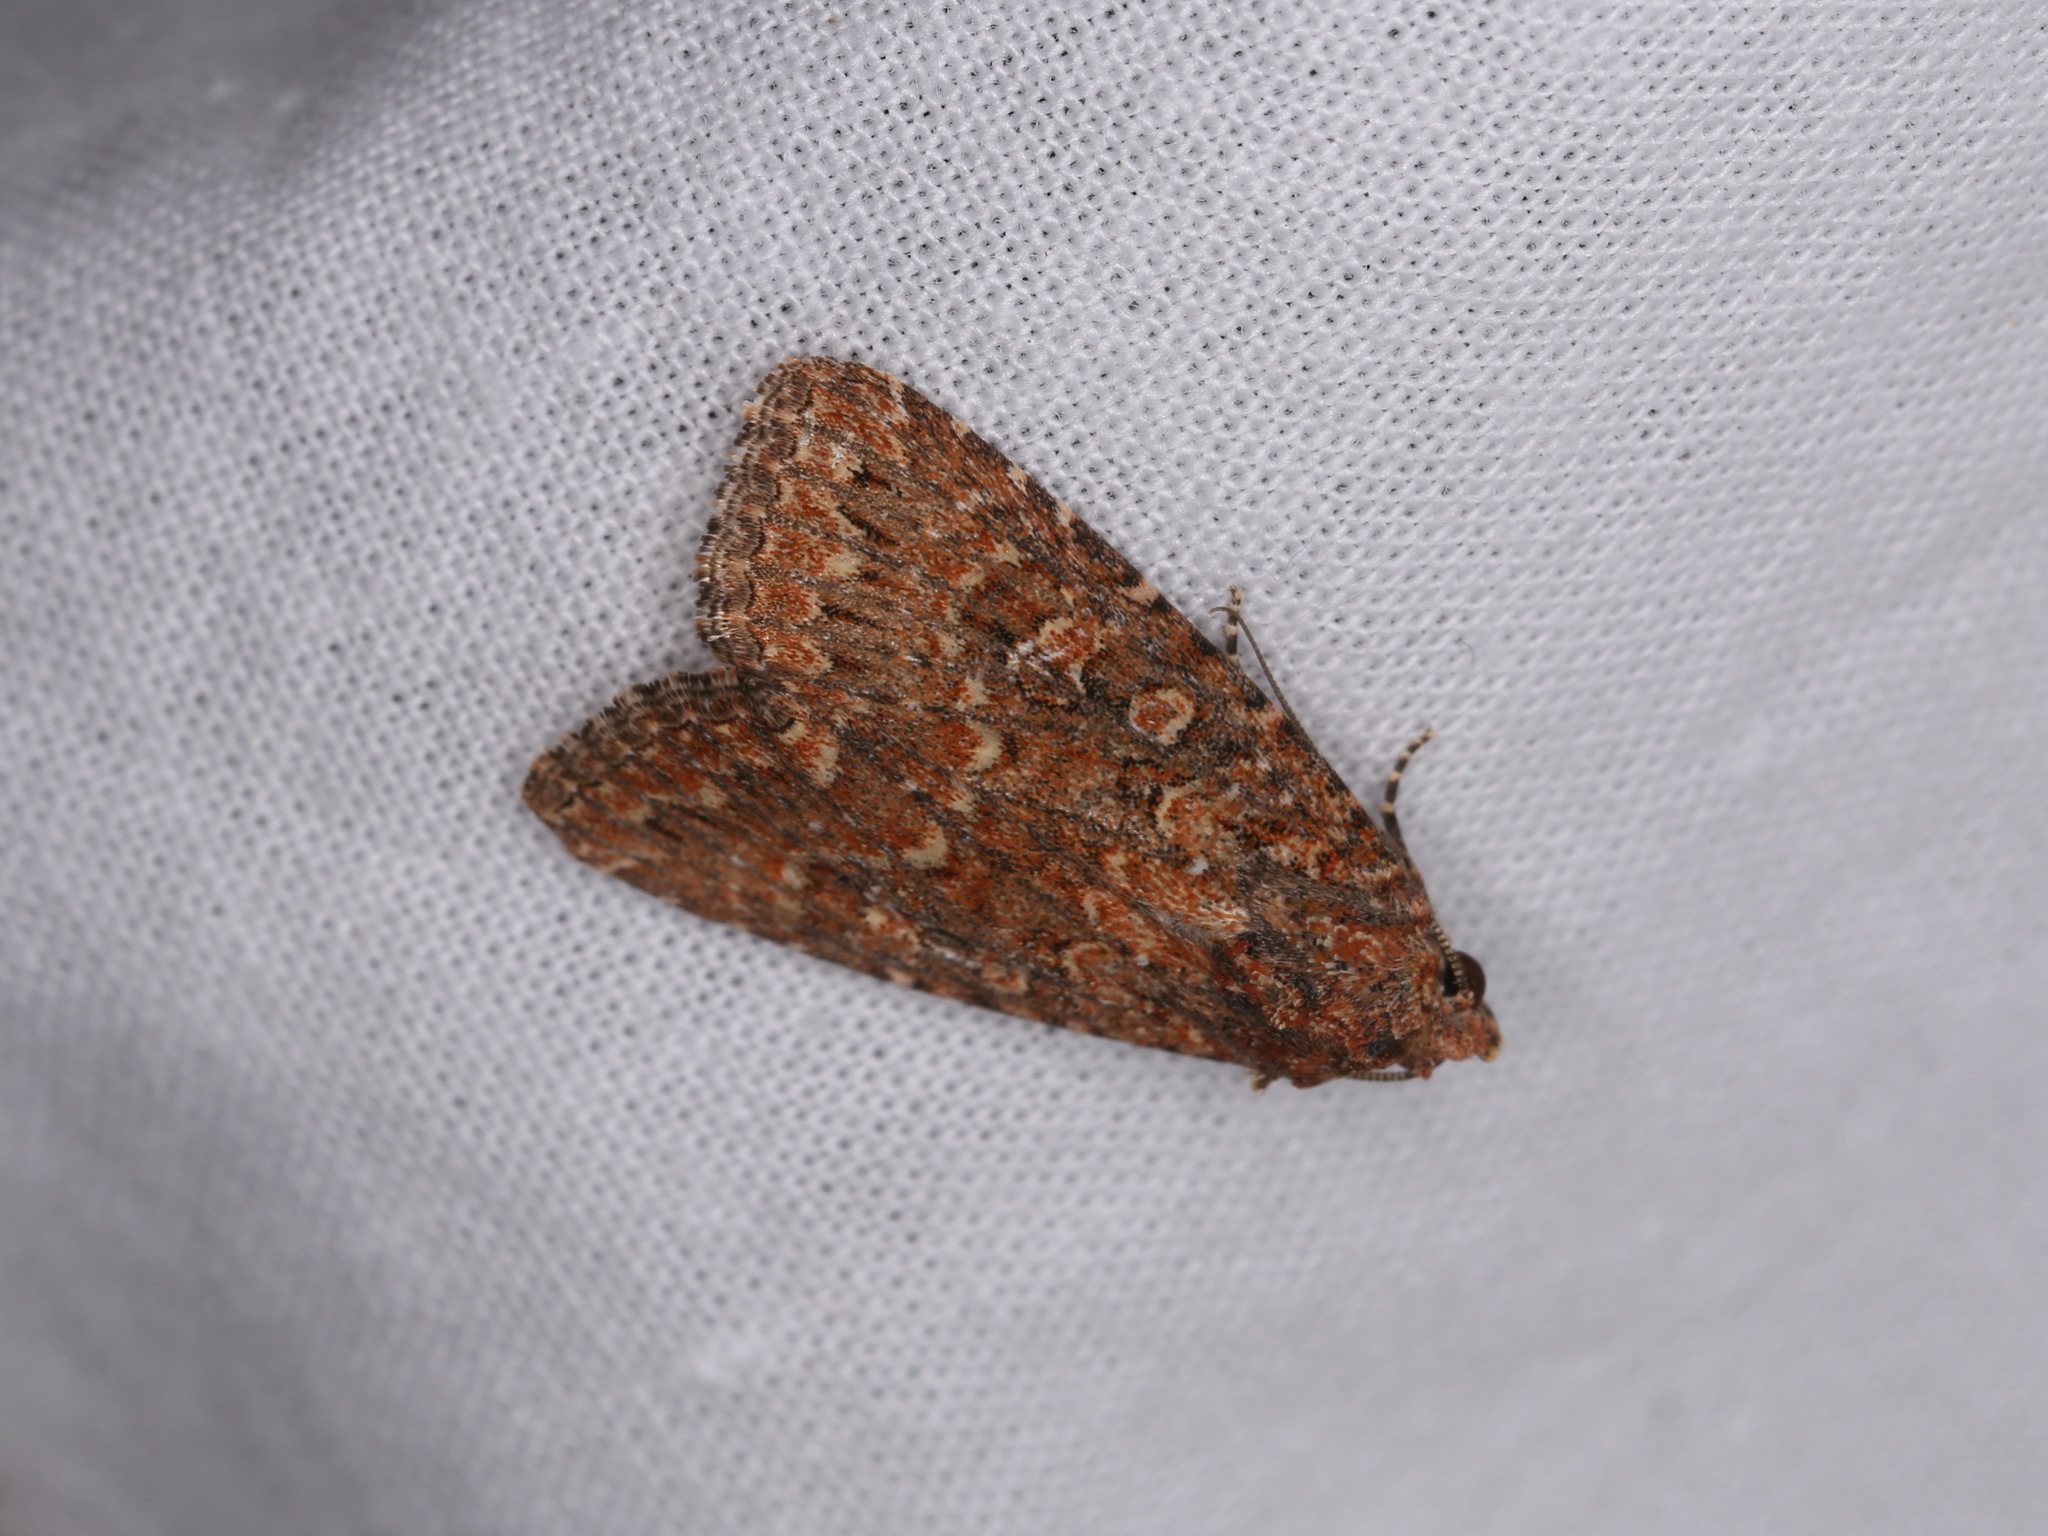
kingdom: Animalia
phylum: Arthropoda
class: Insecta
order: Lepidoptera
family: Noctuidae
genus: Hypoperigea
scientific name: Hypoperigea tonsa
